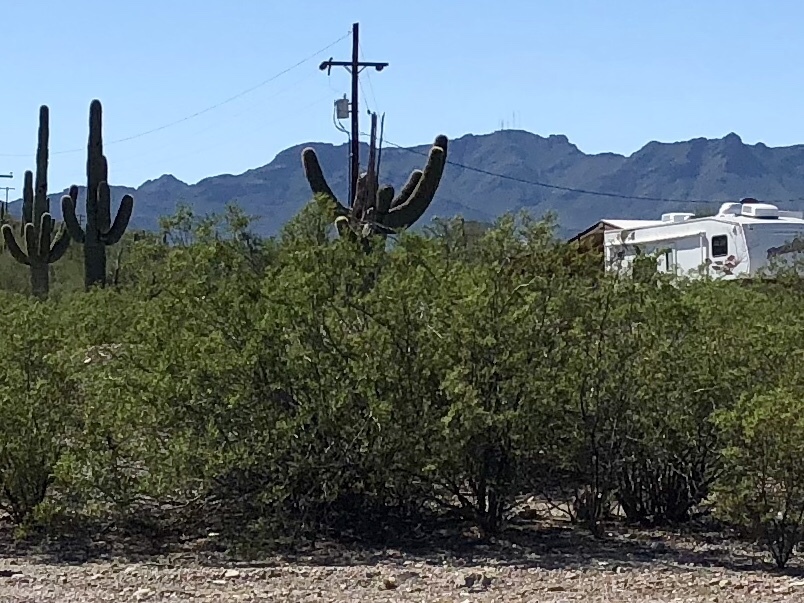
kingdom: Plantae
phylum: Tracheophyta
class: Magnoliopsida
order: Zygophyllales
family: Zygophyllaceae
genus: Larrea
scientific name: Larrea tridentata
